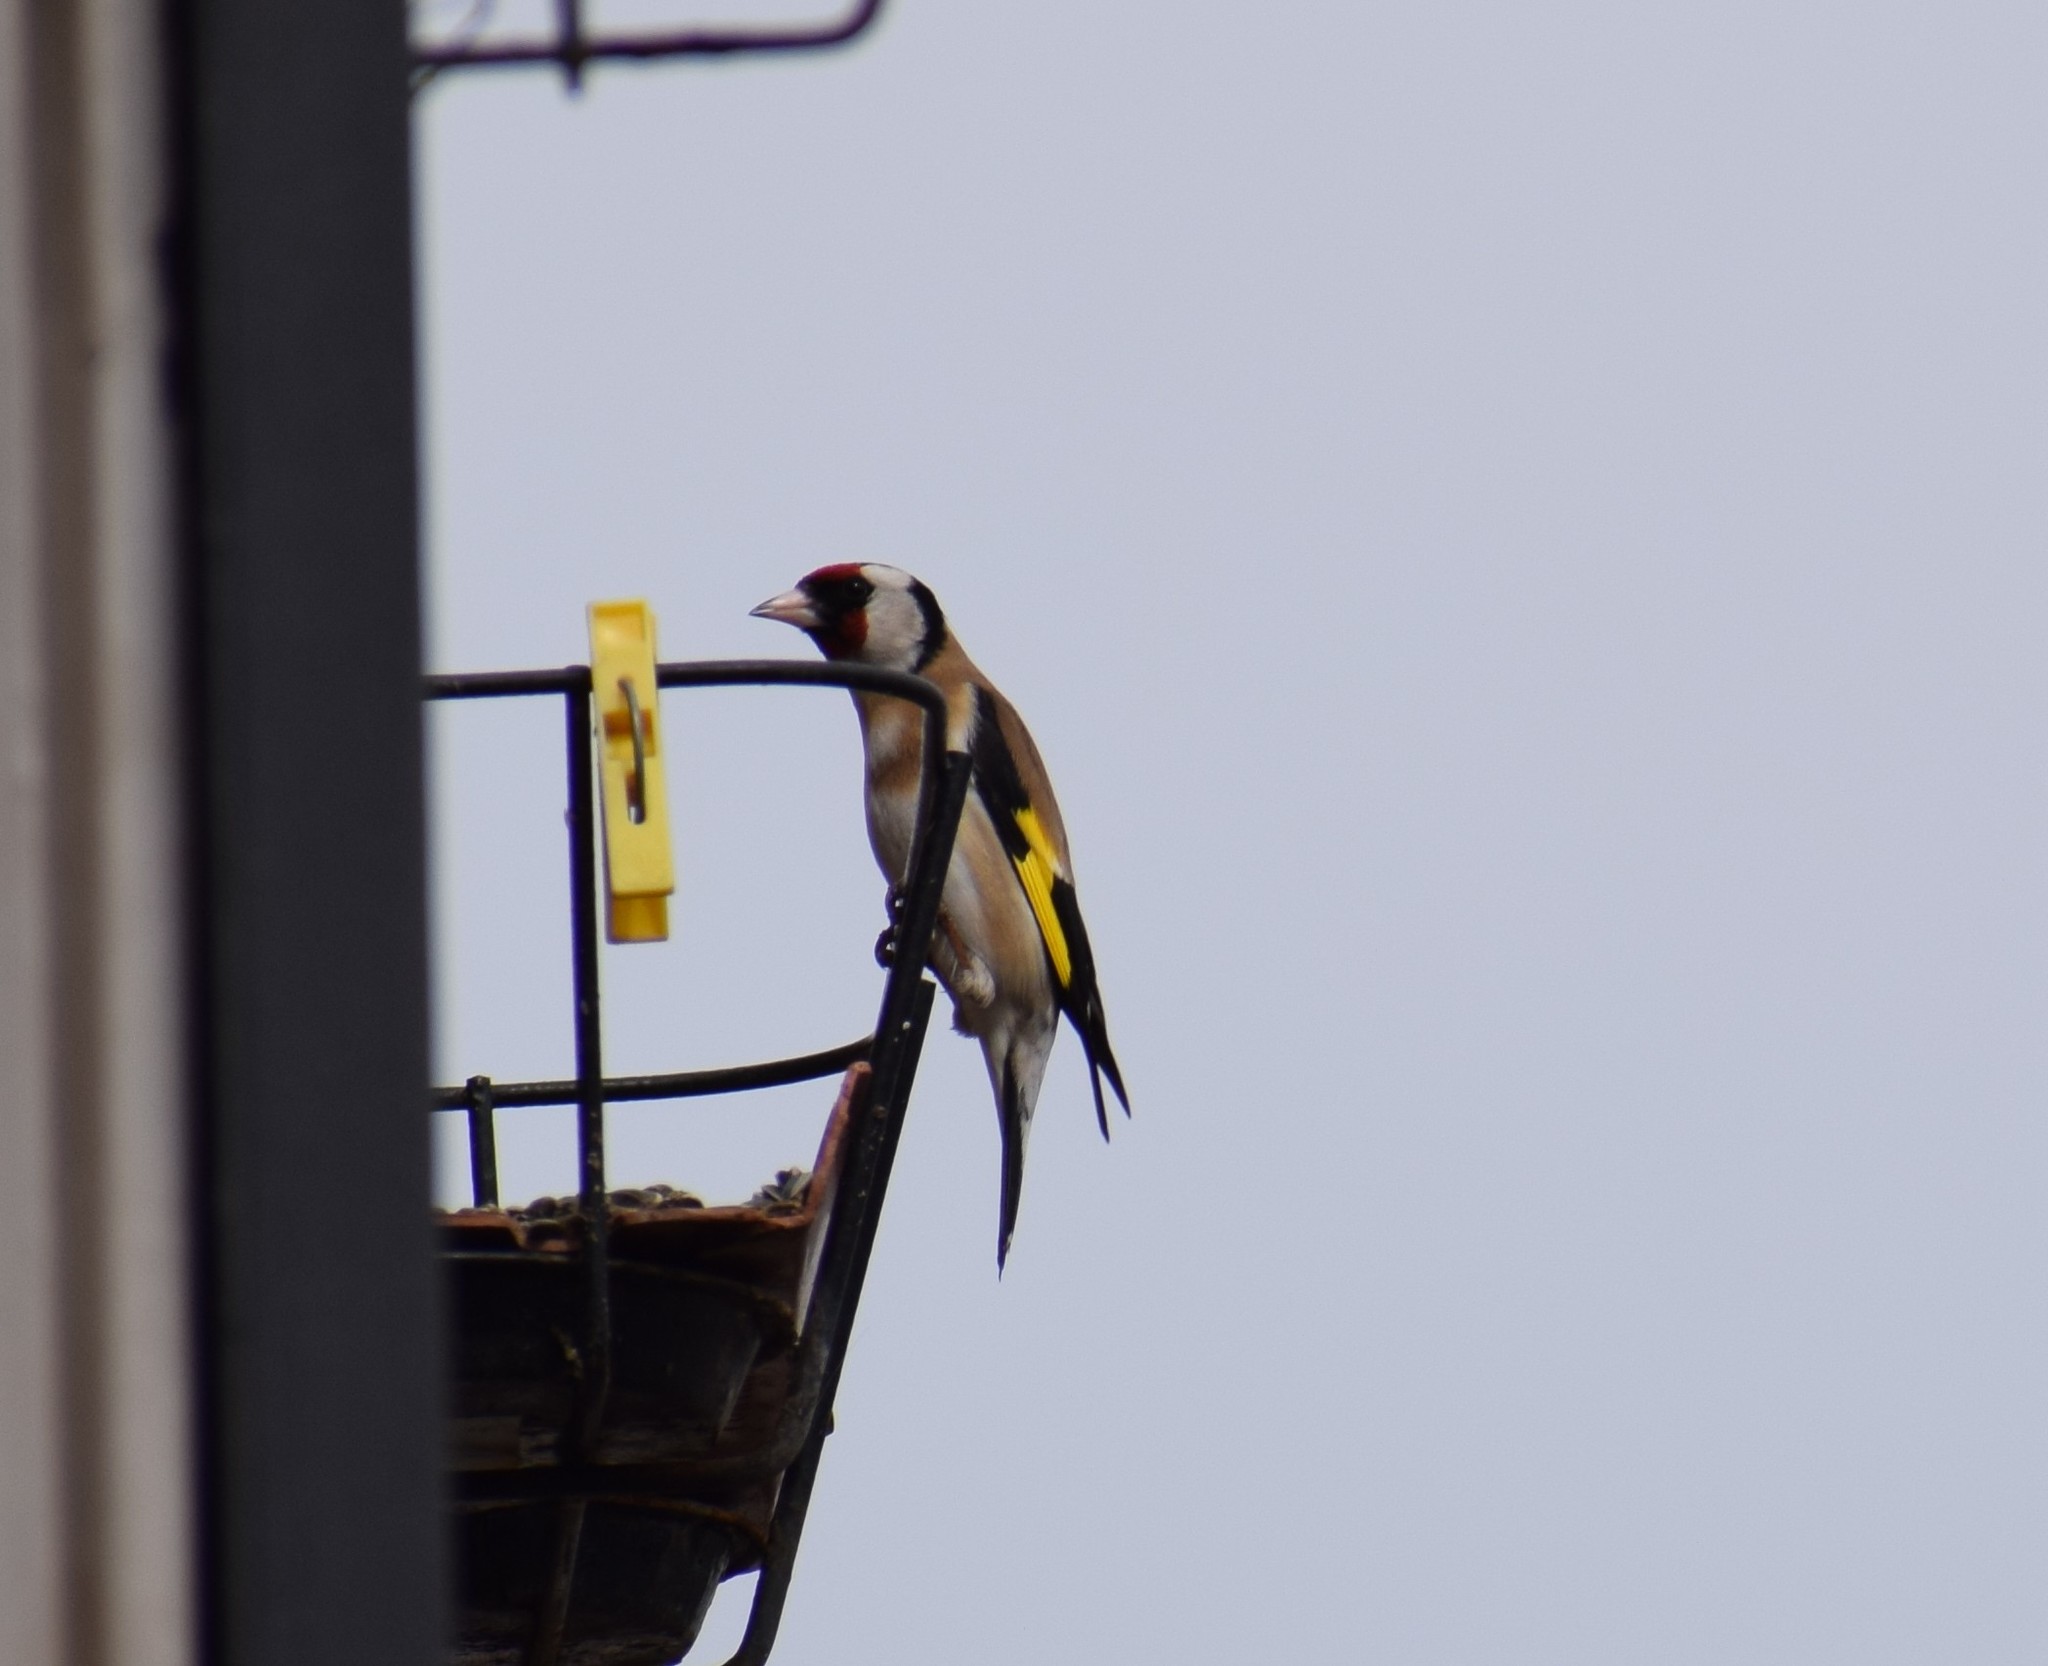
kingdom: Animalia
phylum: Chordata
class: Aves
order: Passeriformes
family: Fringillidae
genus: Carduelis
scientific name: Carduelis carduelis
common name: European goldfinch
